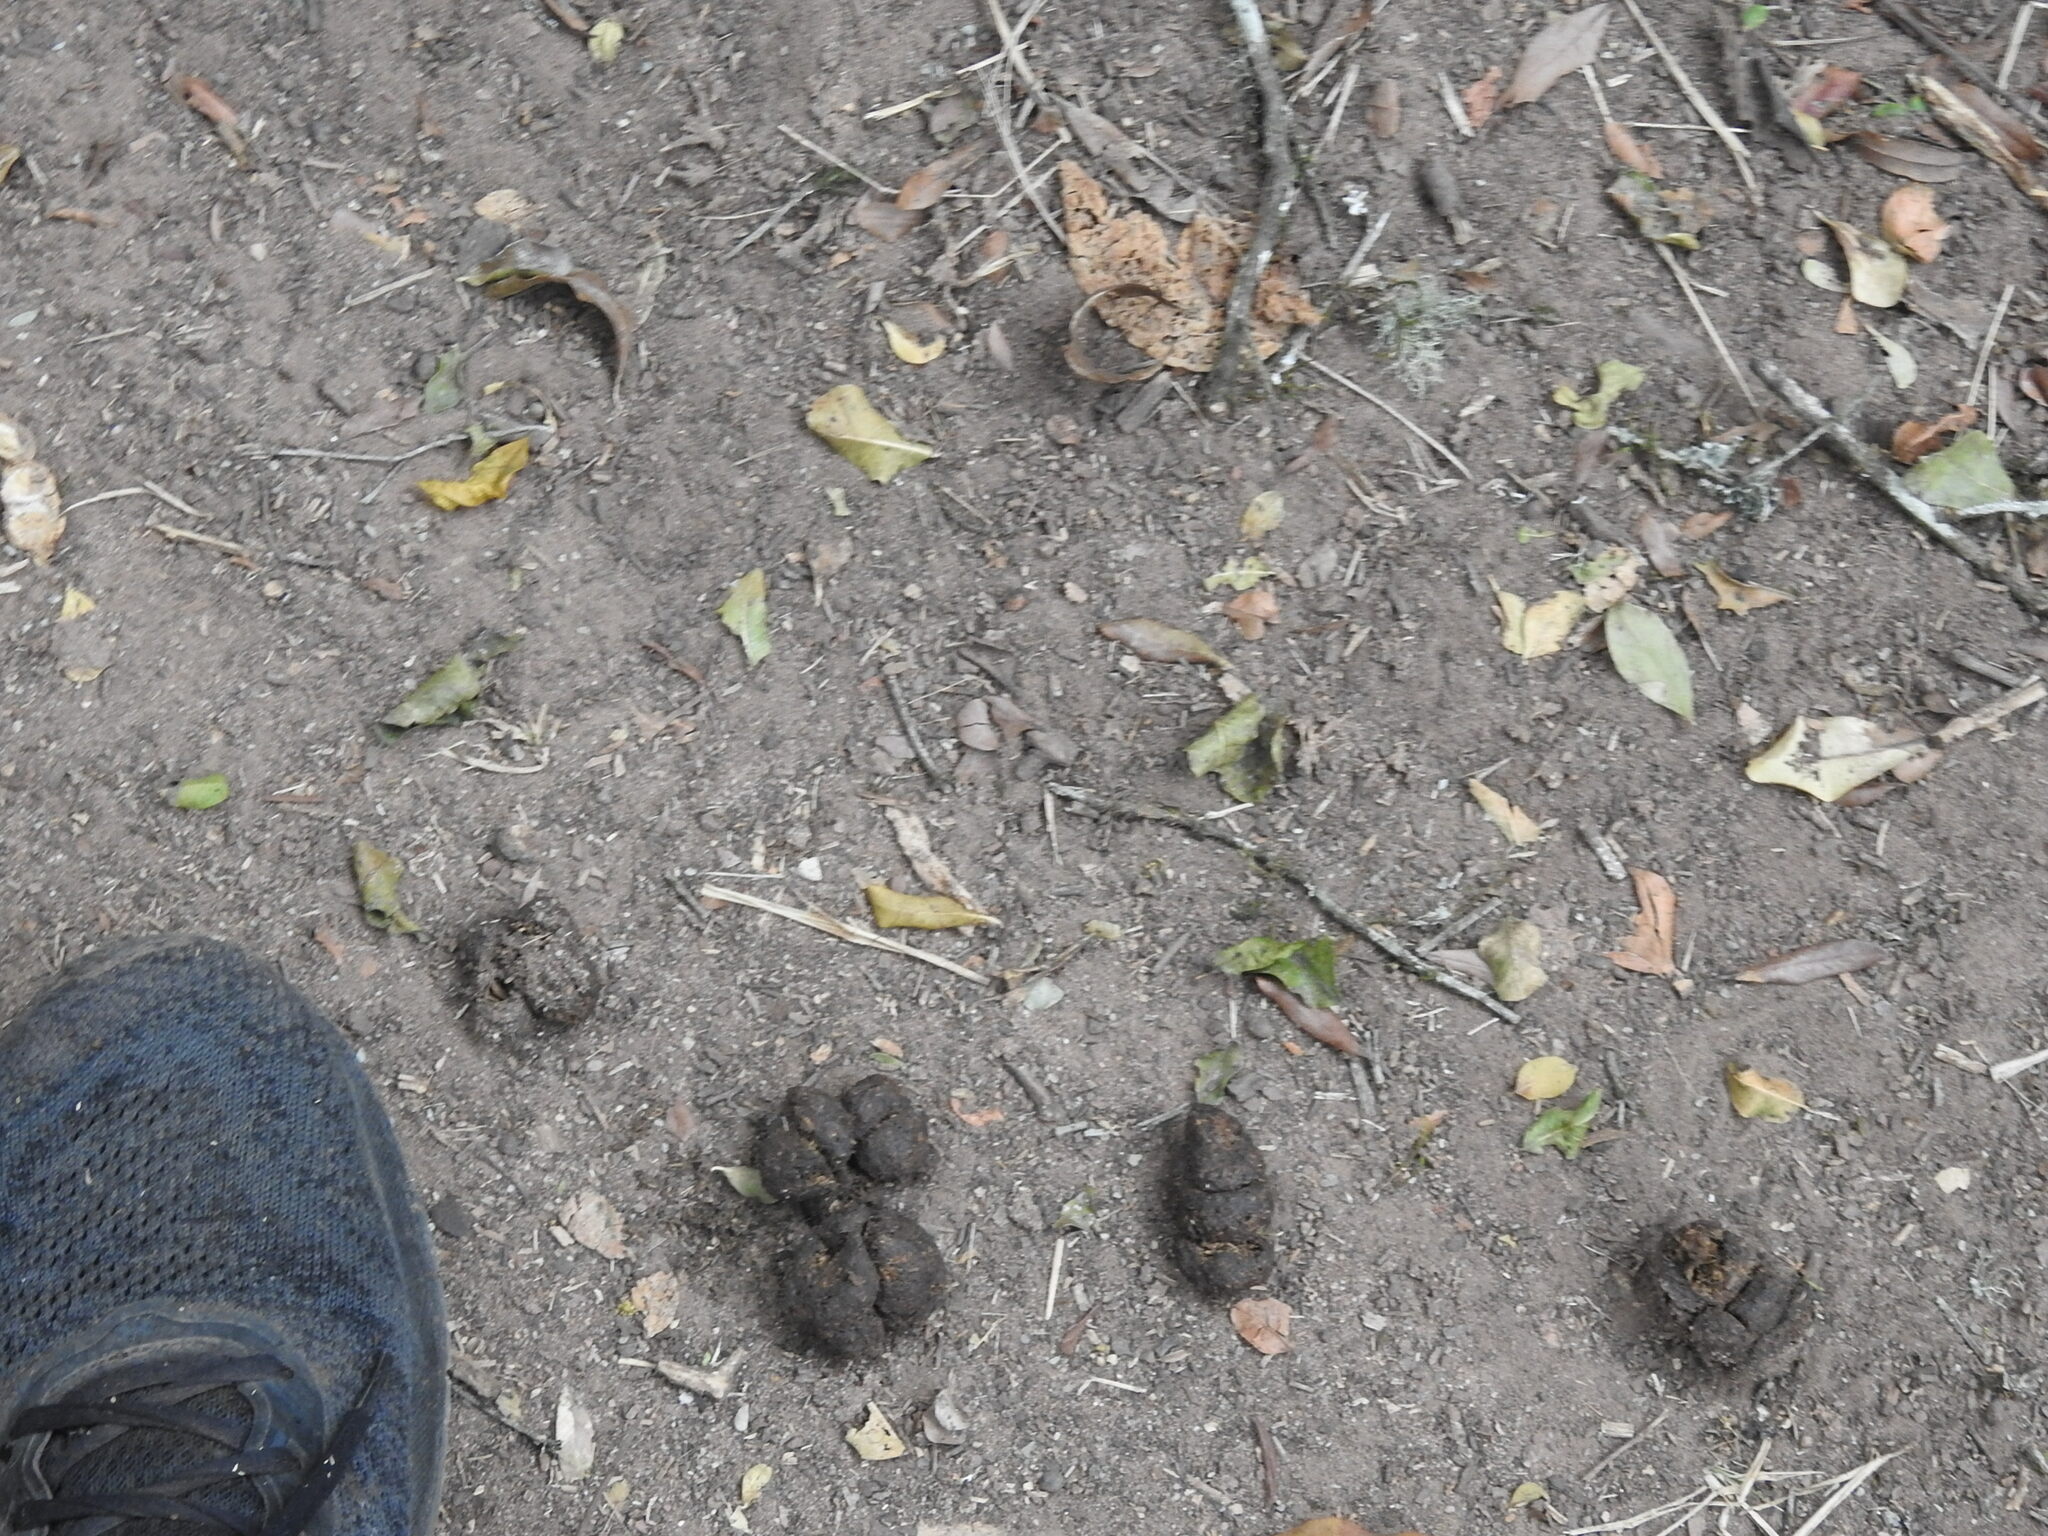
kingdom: Animalia
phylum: Chordata
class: Mammalia
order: Primates
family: Cebidae
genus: Sapajus
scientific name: Sapajus cay
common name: Hooded capuchin
